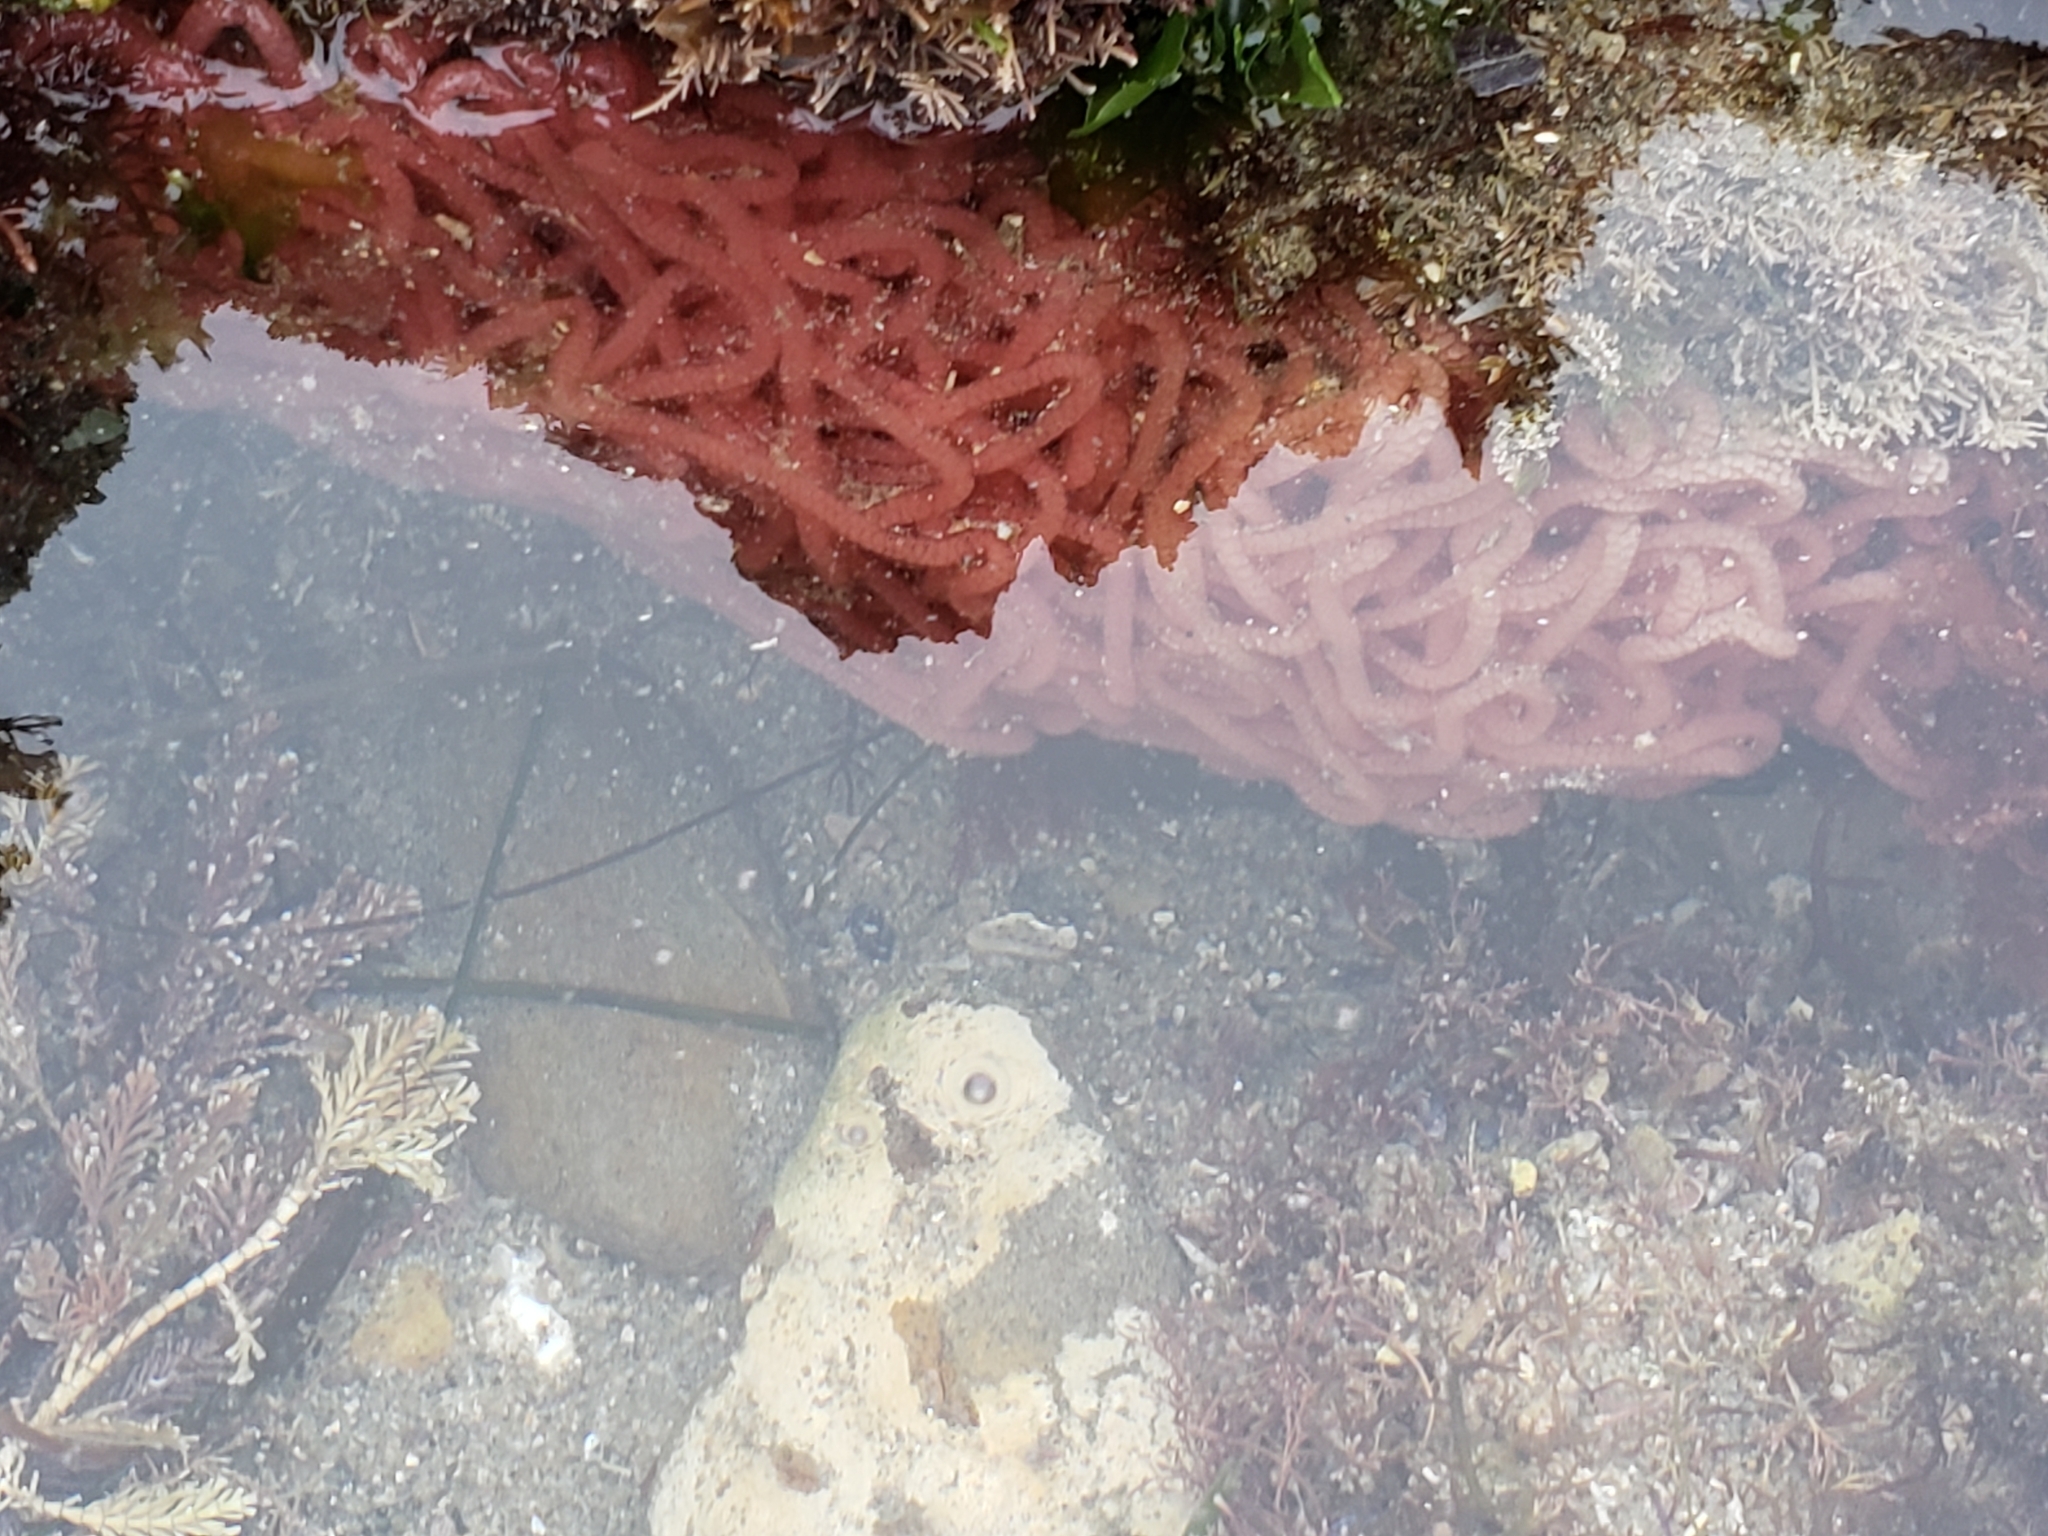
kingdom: Animalia
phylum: Mollusca
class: Gastropoda
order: Aplysiida
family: Aplysiidae
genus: Aplysia
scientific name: Aplysia vaccaria
